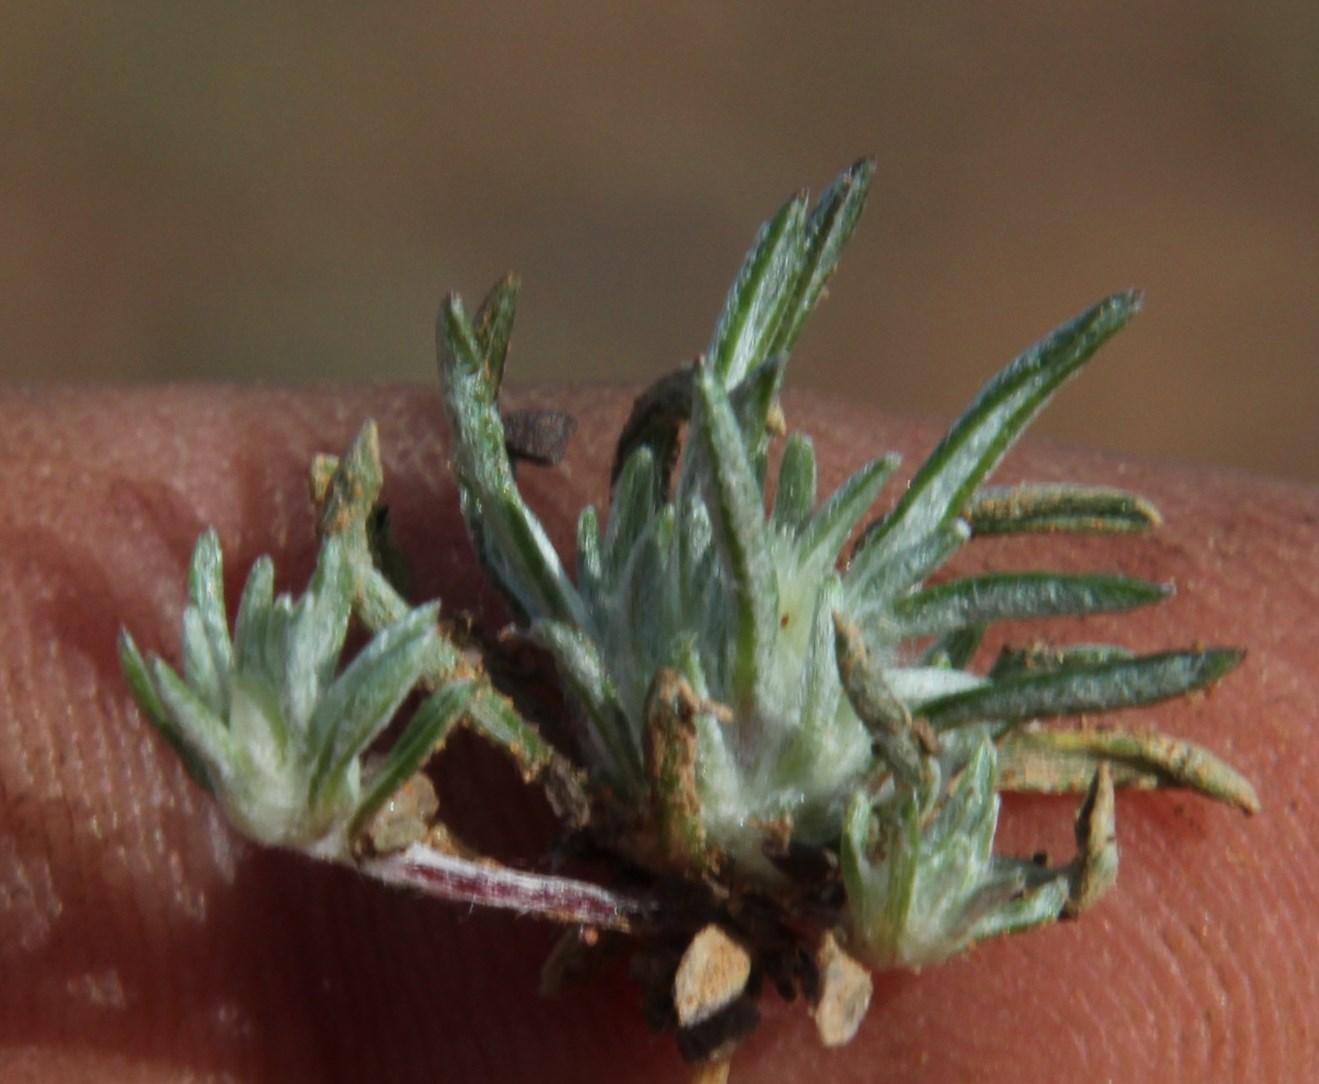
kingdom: Plantae
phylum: Tracheophyta
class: Magnoliopsida
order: Asterales
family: Asteraceae
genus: Ifloga
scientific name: Ifloga glomerata
